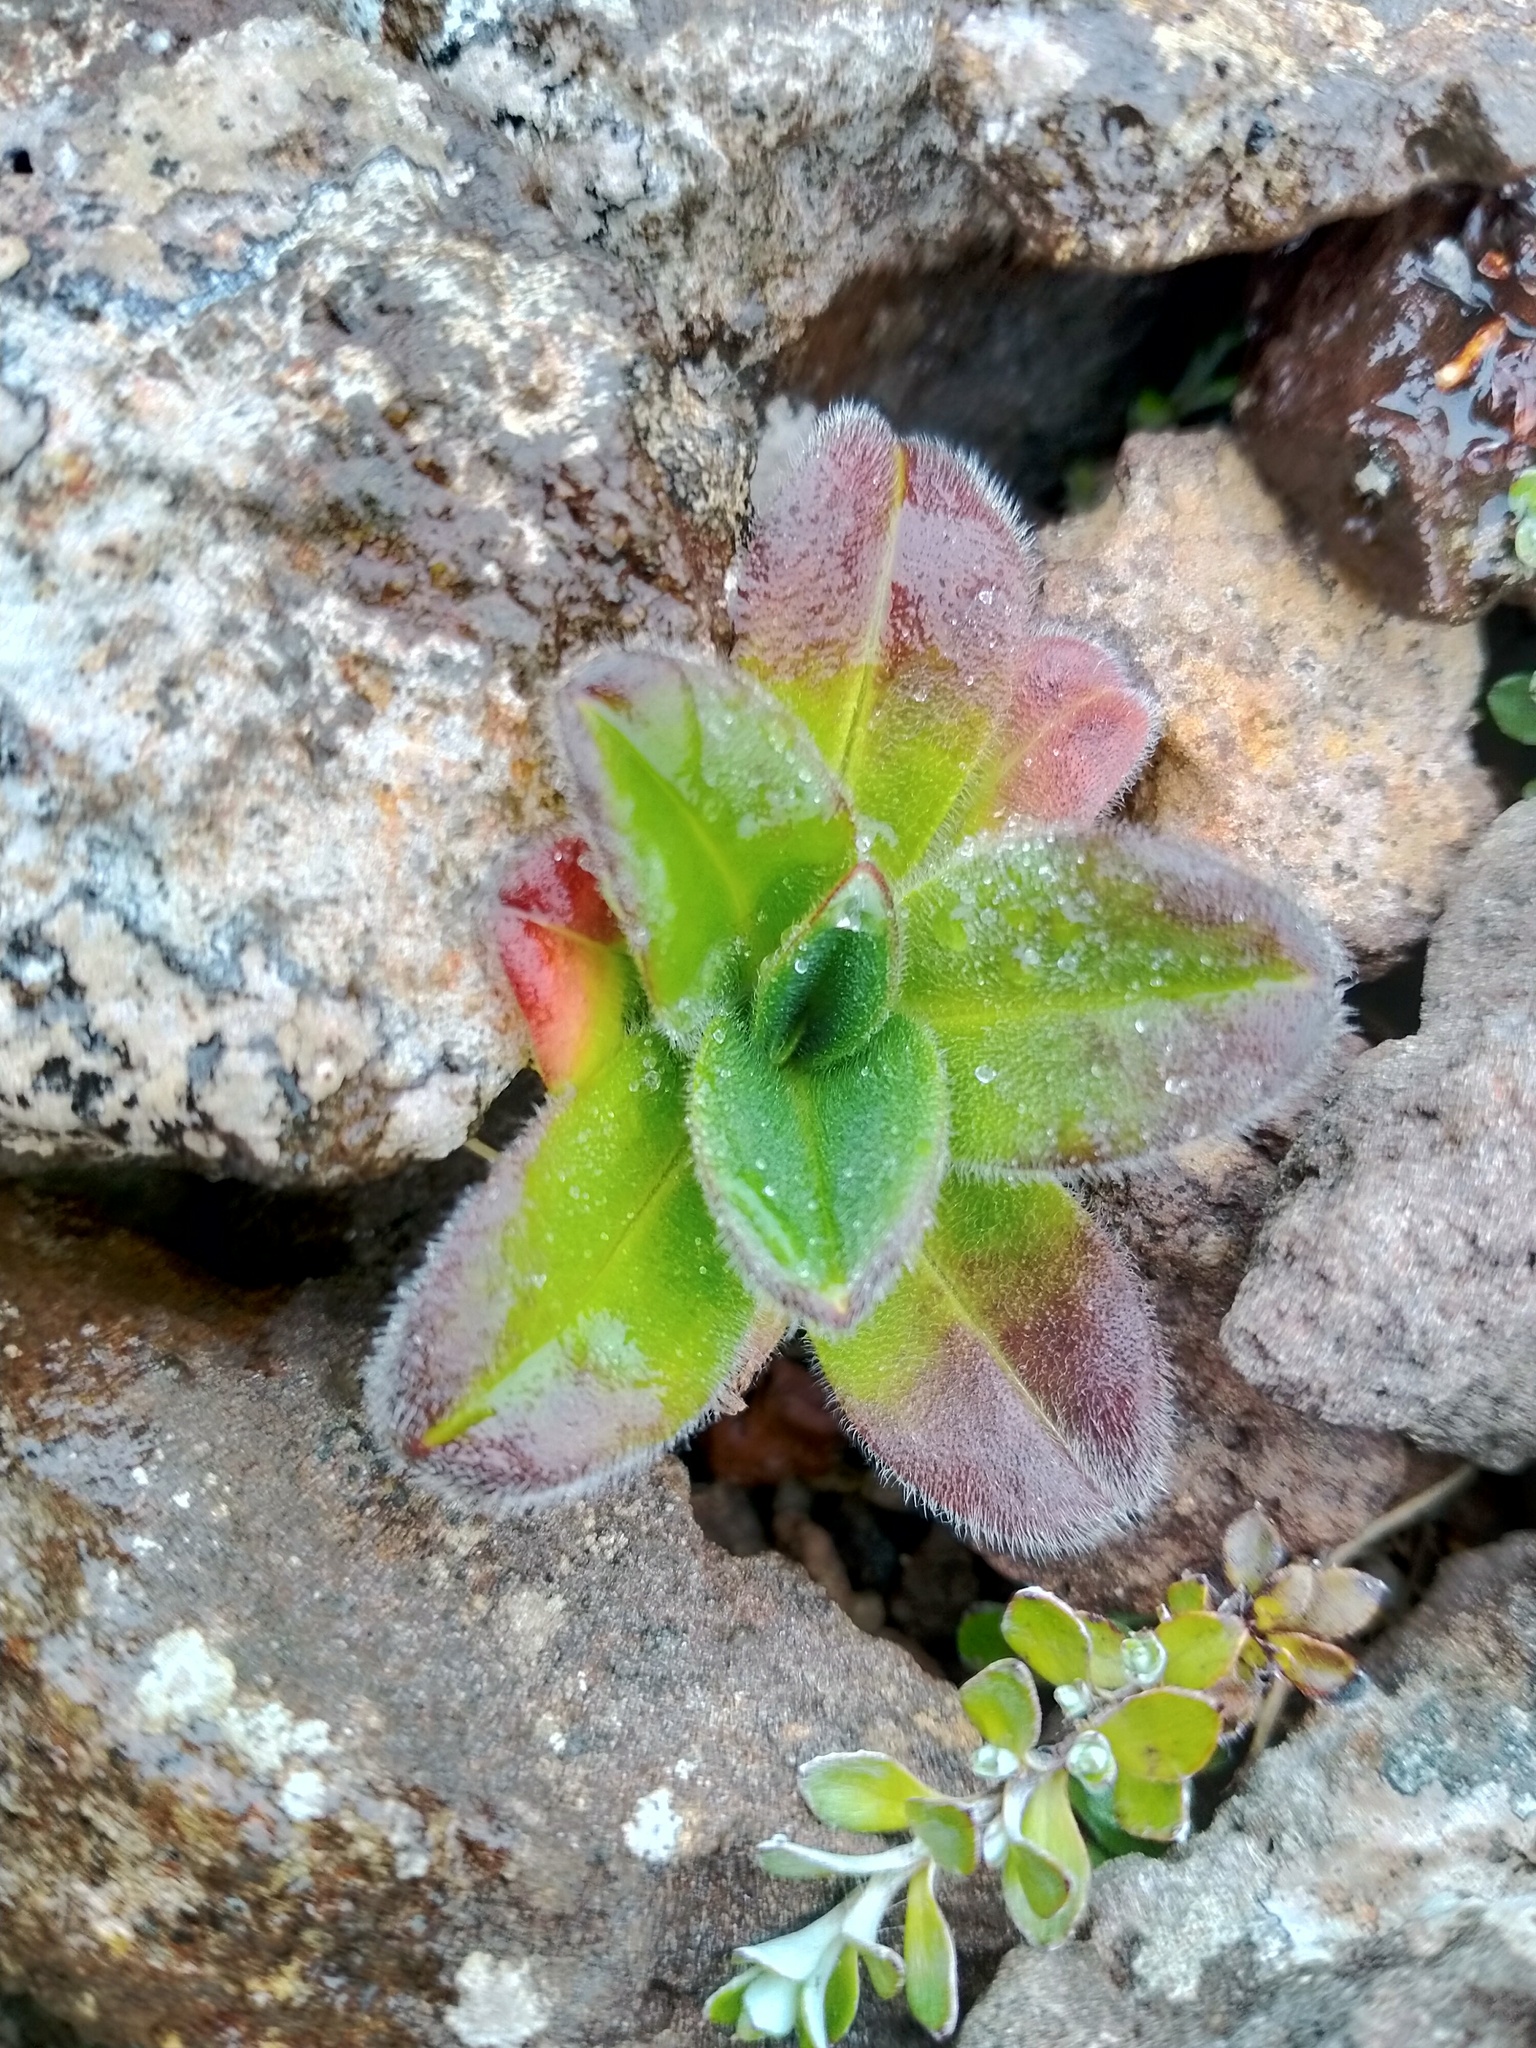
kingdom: Plantae
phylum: Tracheophyta
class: Magnoliopsida
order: Boraginales
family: Boraginaceae
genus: Myosotis
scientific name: Myosotis capitata
